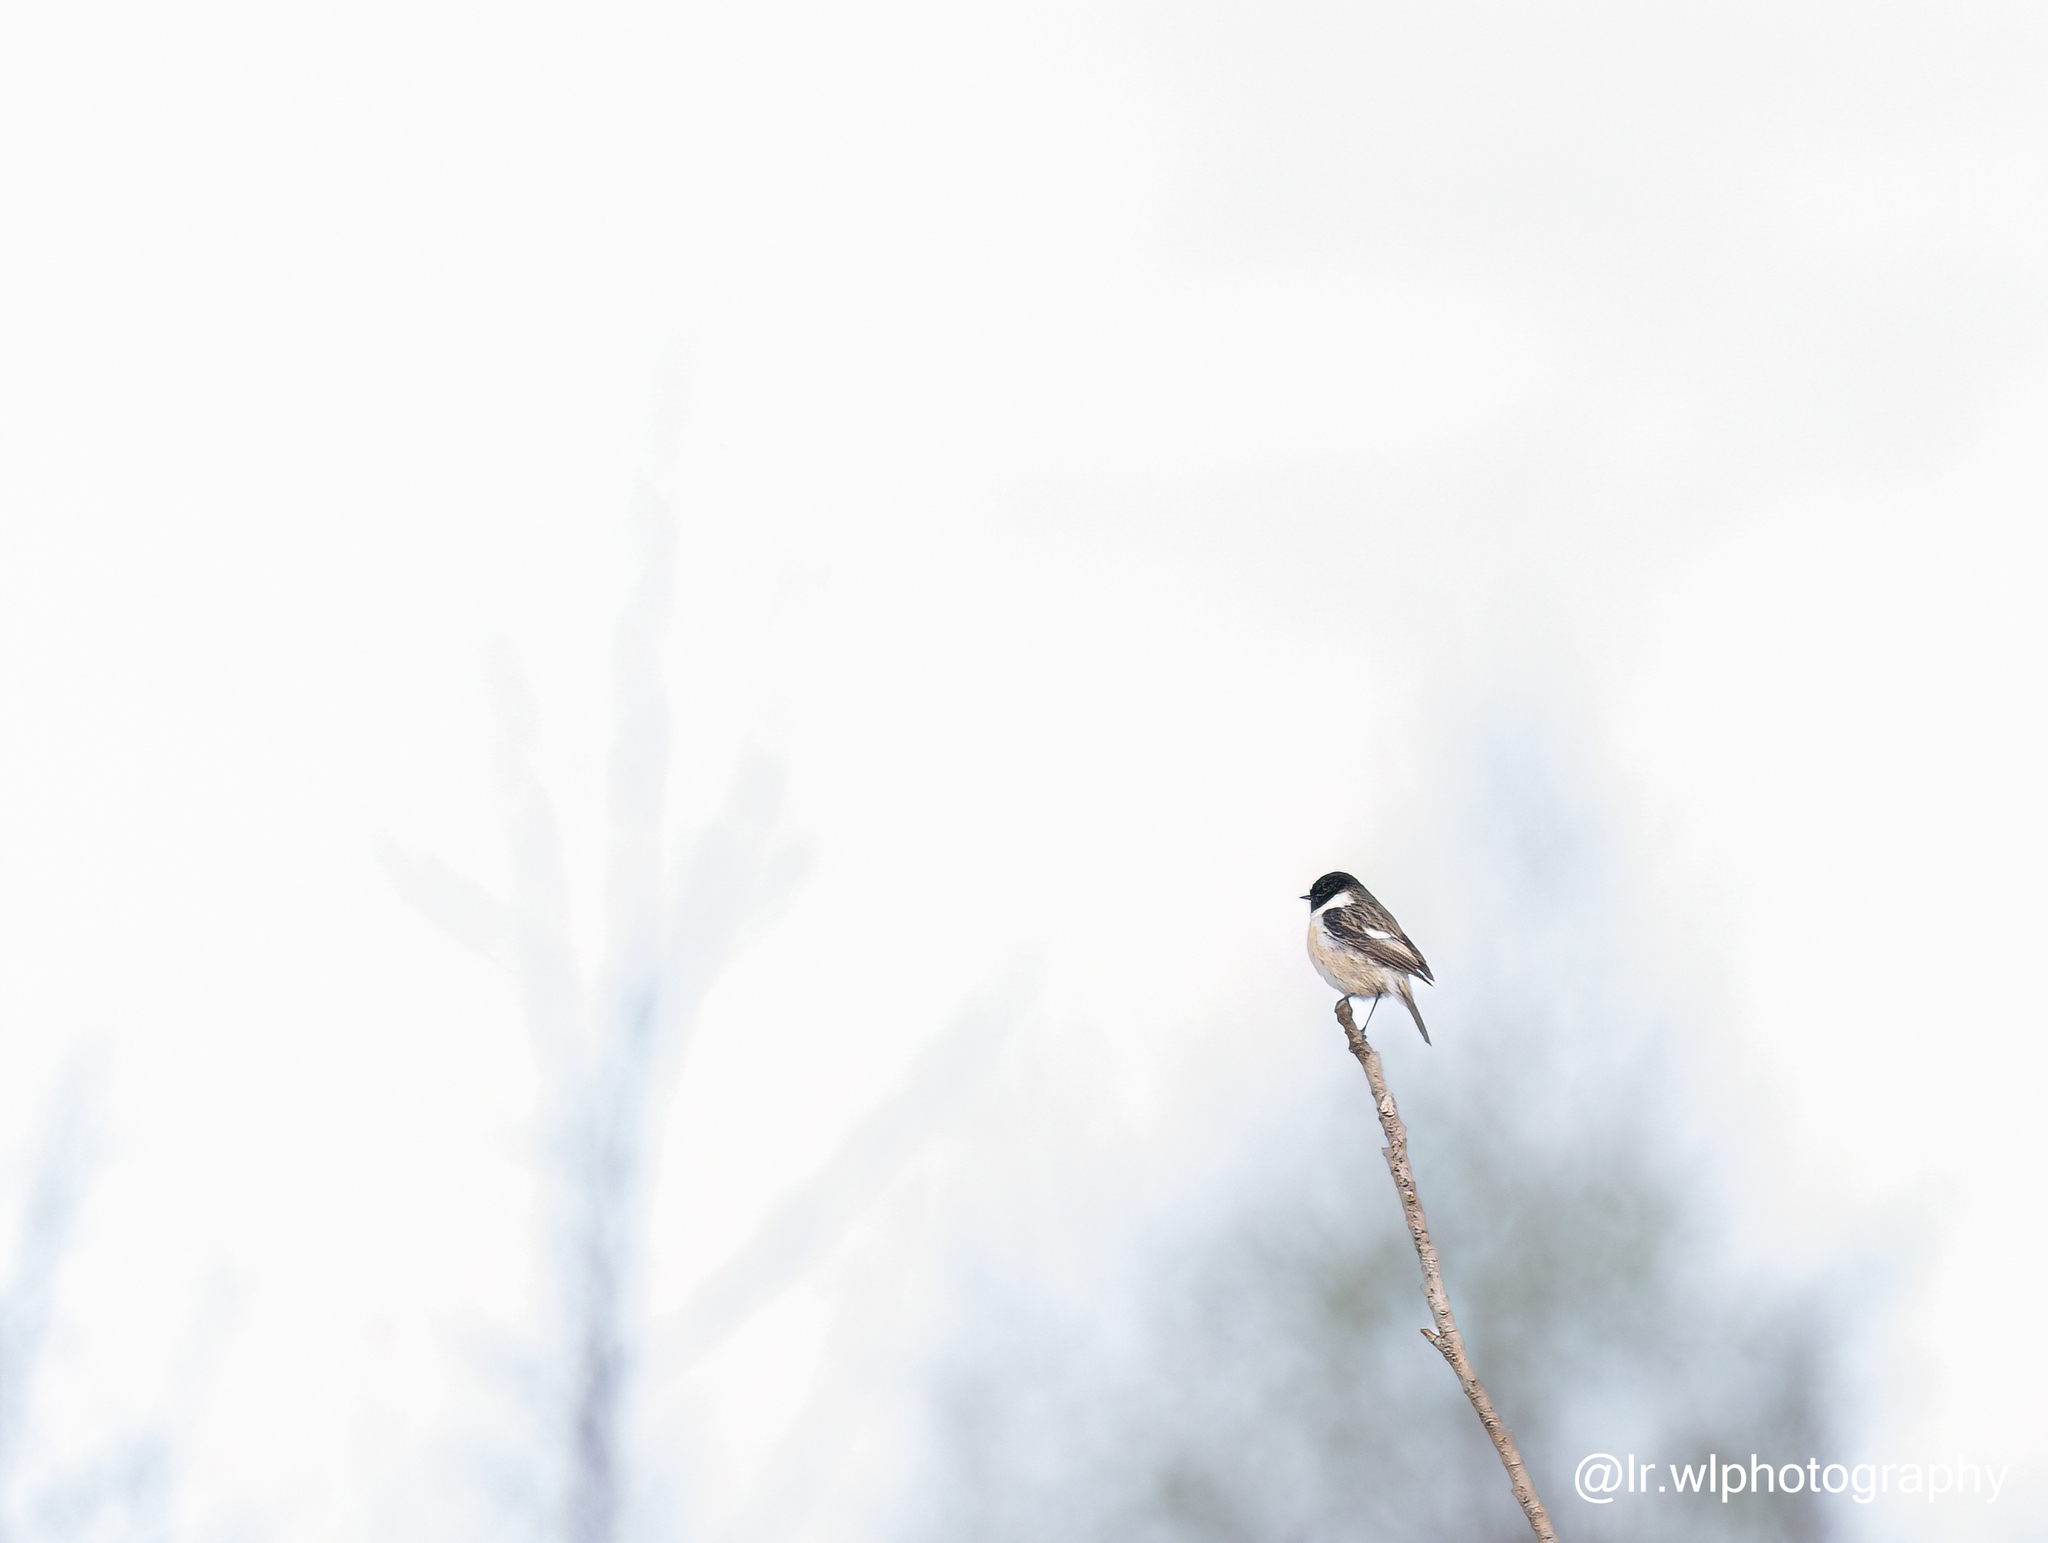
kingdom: Animalia
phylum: Chordata
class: Aves
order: Passeriformes
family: Muscicapidae
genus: Saxicola
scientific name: Saxicola rubicola
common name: European stonechat
